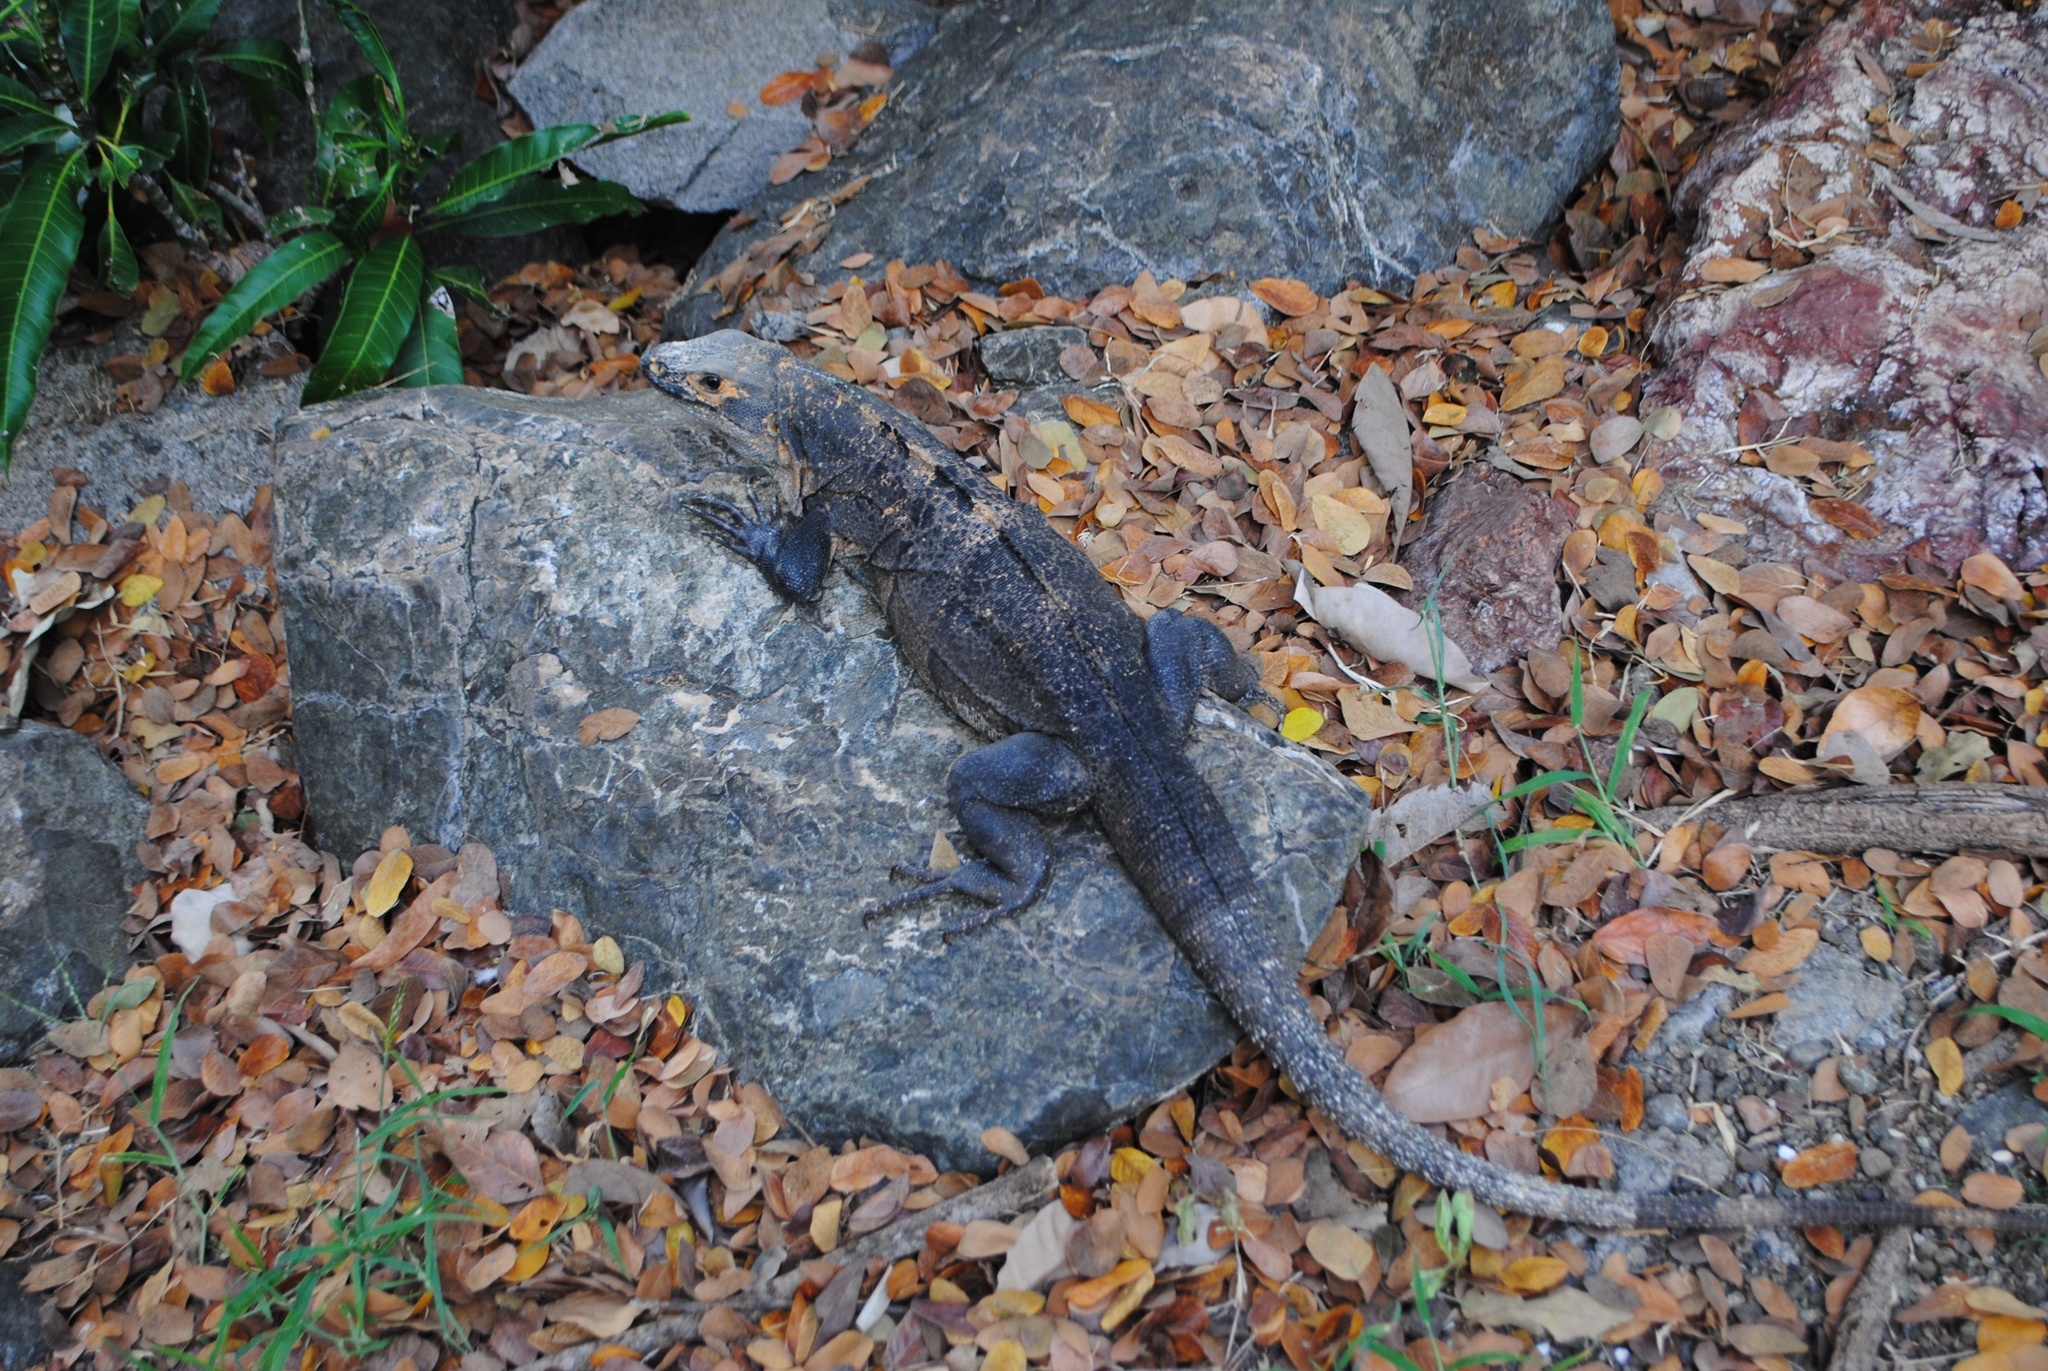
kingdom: Animalia
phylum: Chordata
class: Squamata
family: Iguanidae
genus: Ctenosaura
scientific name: Ctenosaura similis
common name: Black spiny-tailed iguana
